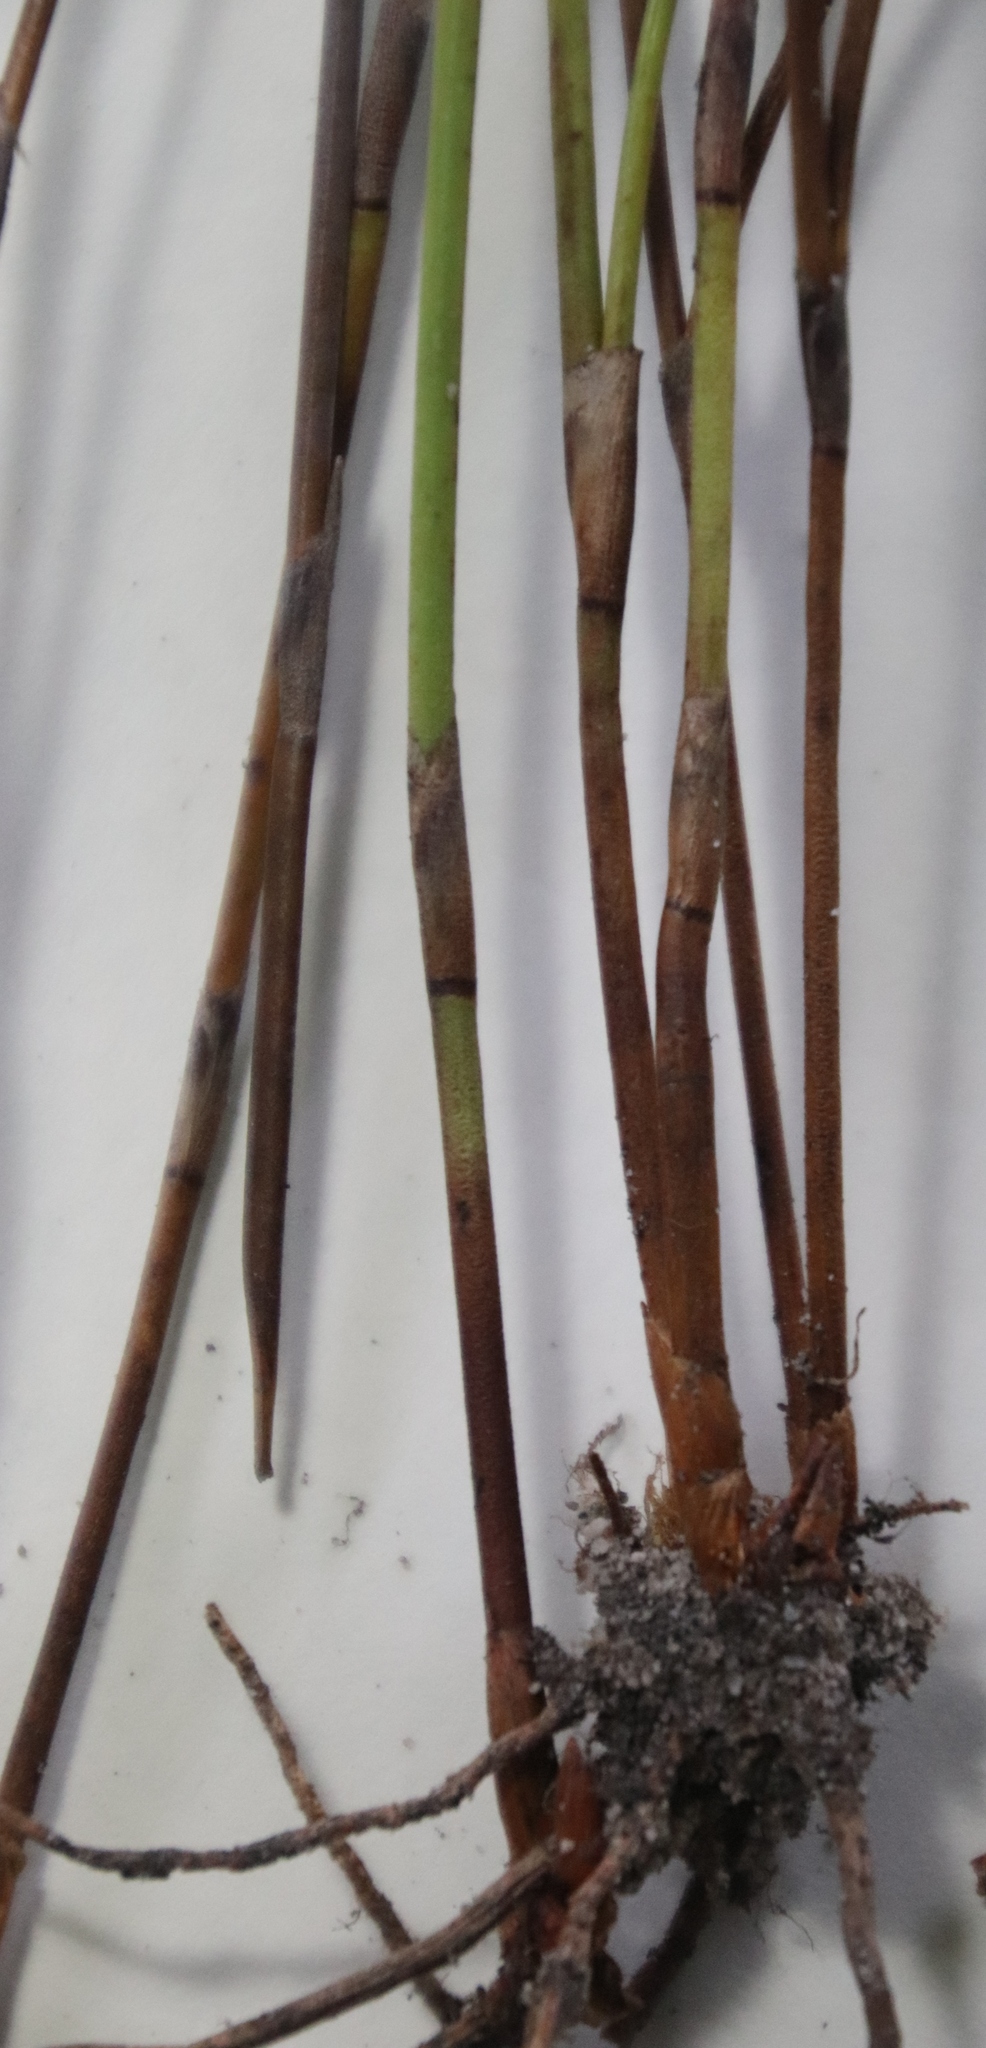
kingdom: Plantae
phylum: Tracheophyta
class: Liliopsida
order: Poales
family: Restionaceae
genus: Restio
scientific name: Restio bifurcus
